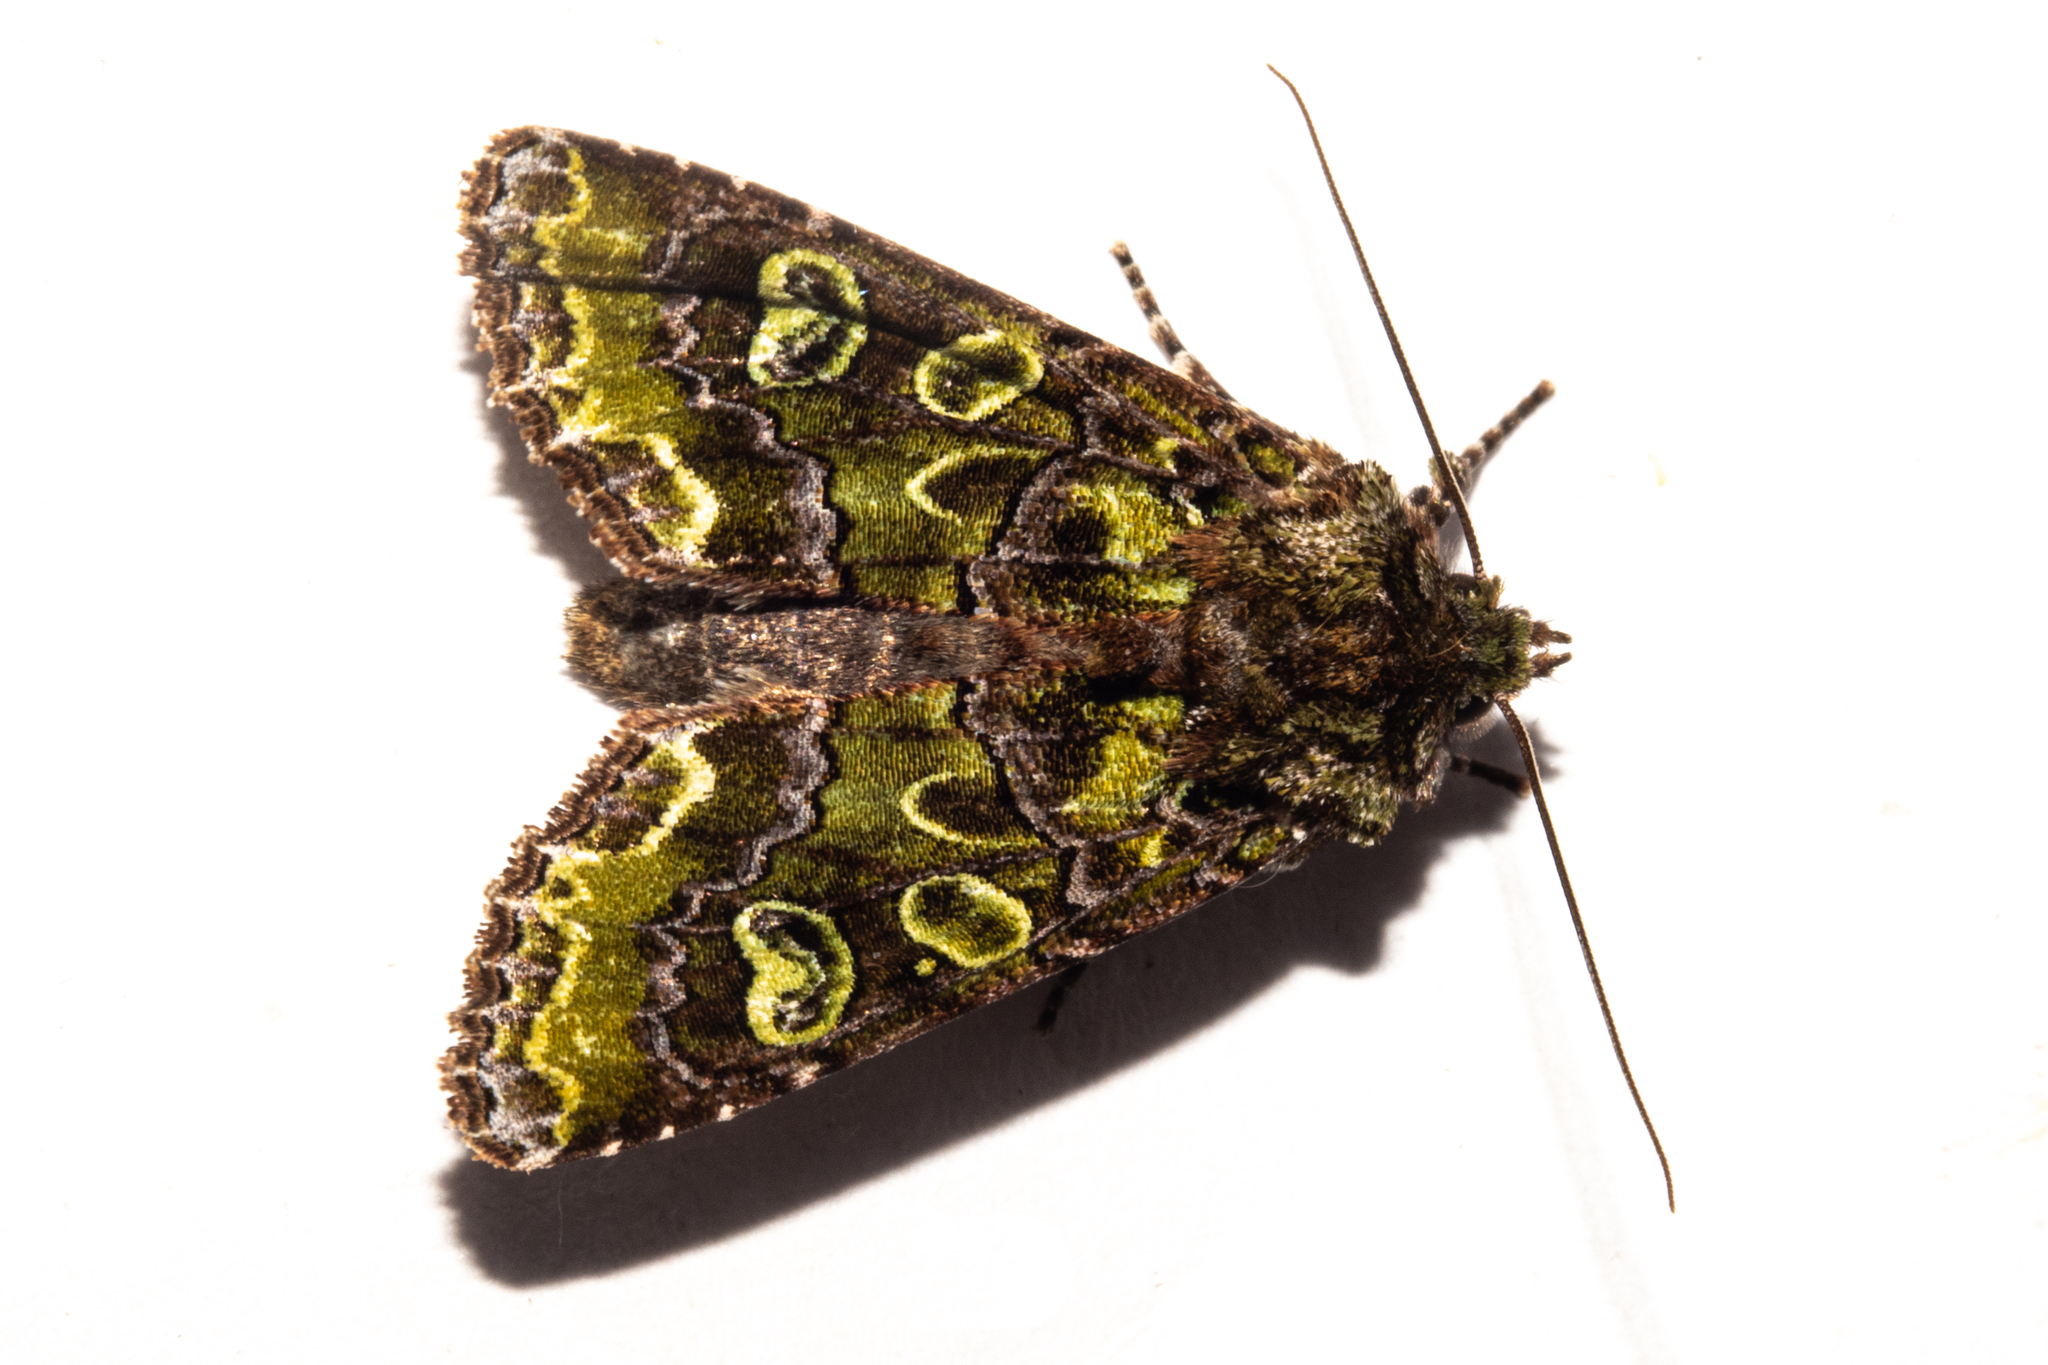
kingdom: Animalia
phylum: Arthropoda
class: Insecta
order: Lepidoptera
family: Noctuidae
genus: Ichneutica
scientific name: Ichneutica chlorodonta
